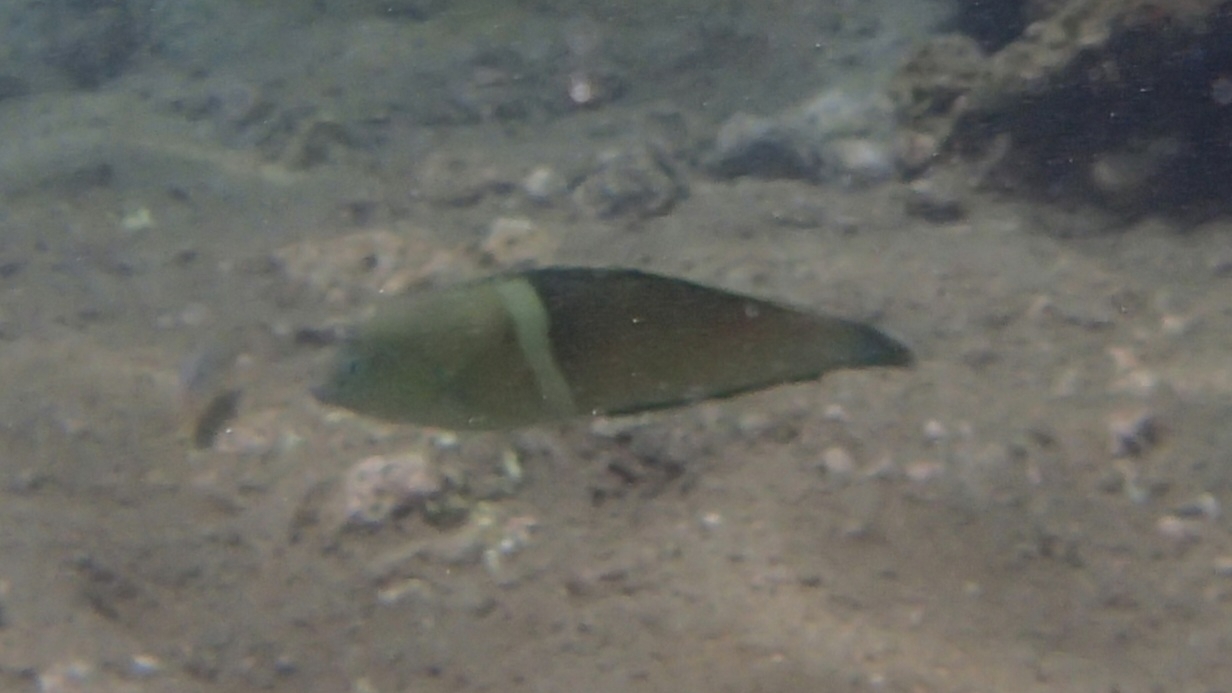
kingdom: Animalia
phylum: Chordata
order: Perciformes
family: Labridae
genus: Coris
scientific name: Coris aygula
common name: Clown coris
